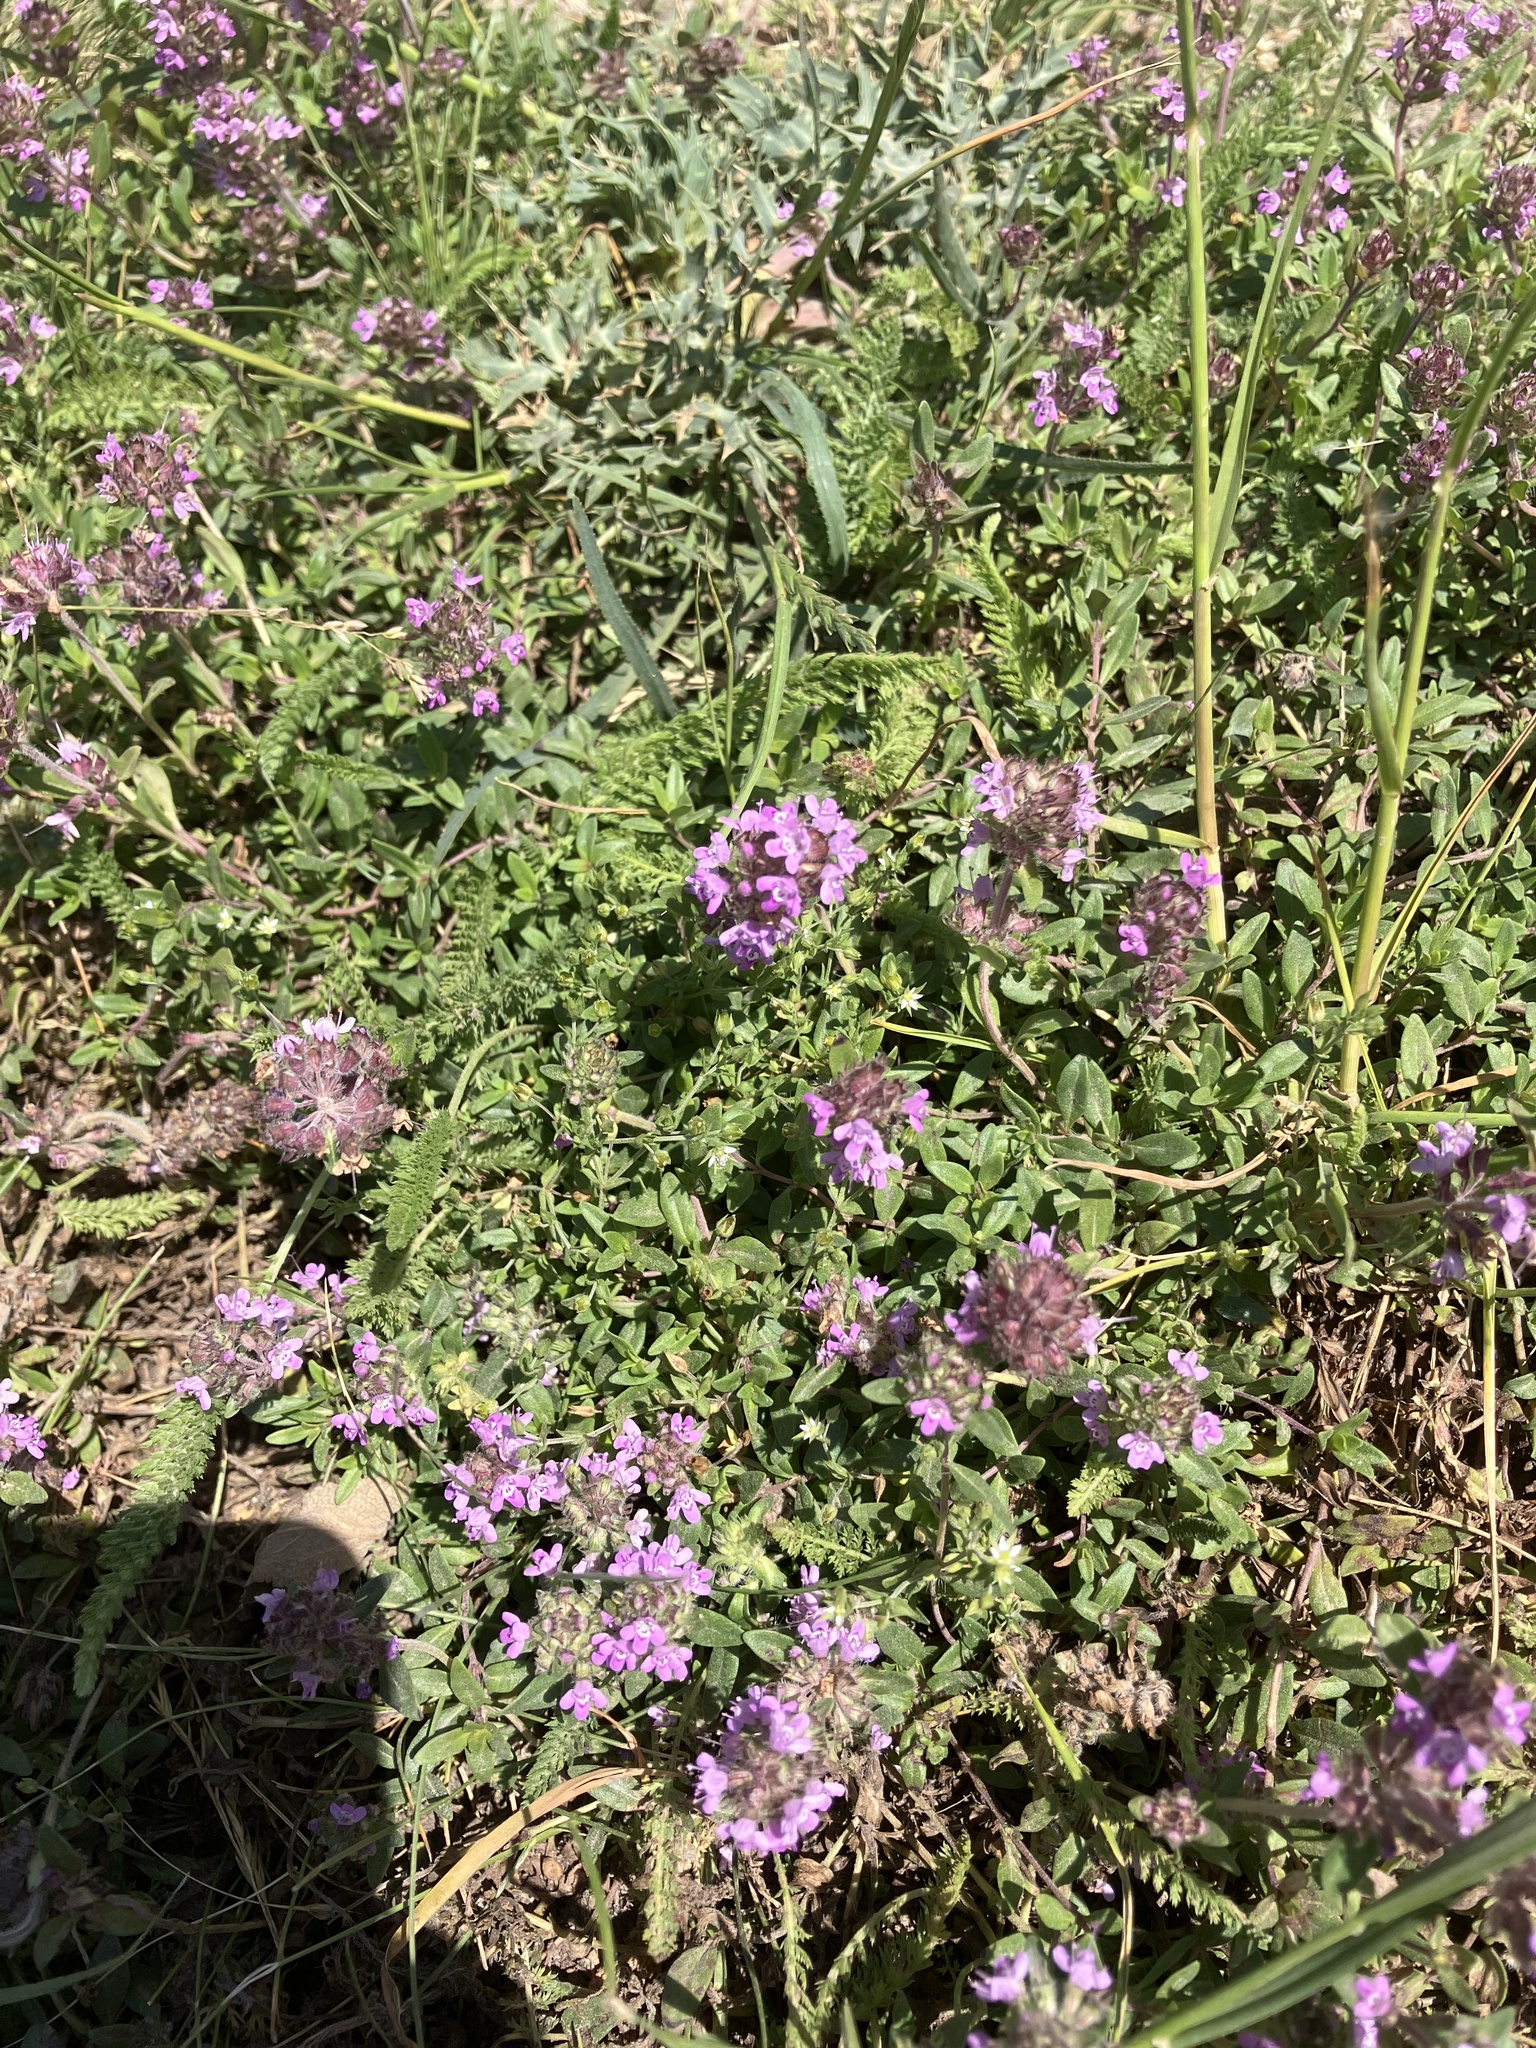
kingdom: Plantae
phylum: Tracheophyta
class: Magnoliopsida
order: Lamiales
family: Lamiaceae
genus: Thymus
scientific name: Thymus odoratissimus
